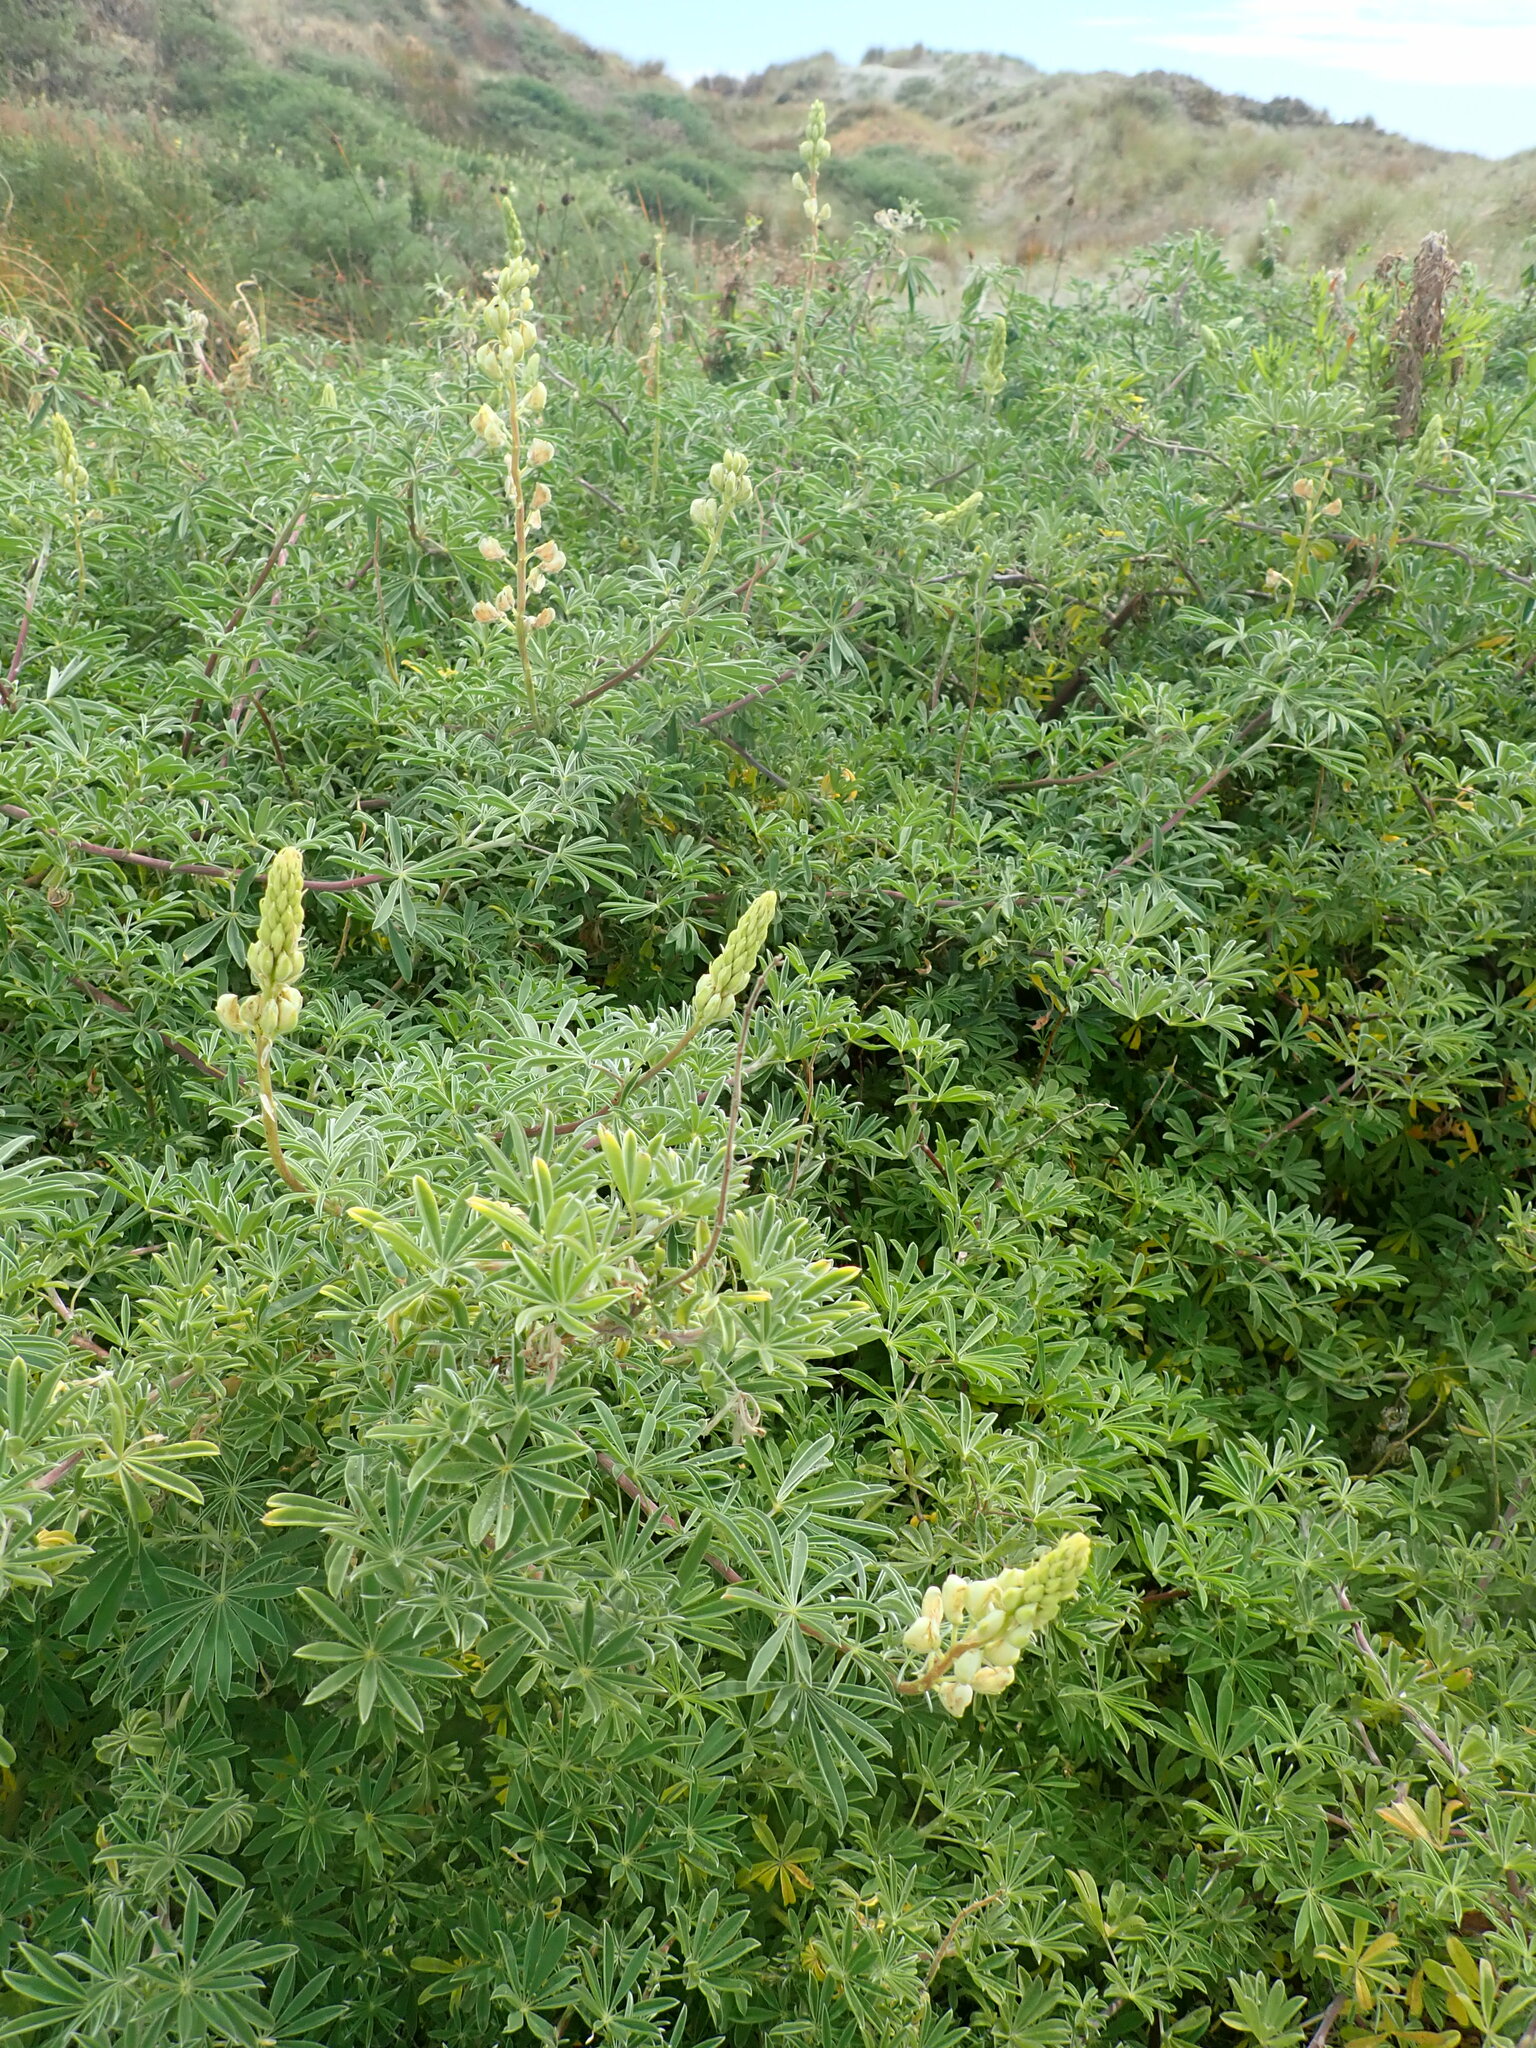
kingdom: Plantae
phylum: Tracheophyta
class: Magnoliopsida
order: Fabales
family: Fabaceae
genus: Lupinus
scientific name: Lupinus arboreus
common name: Yellow bush lupine
